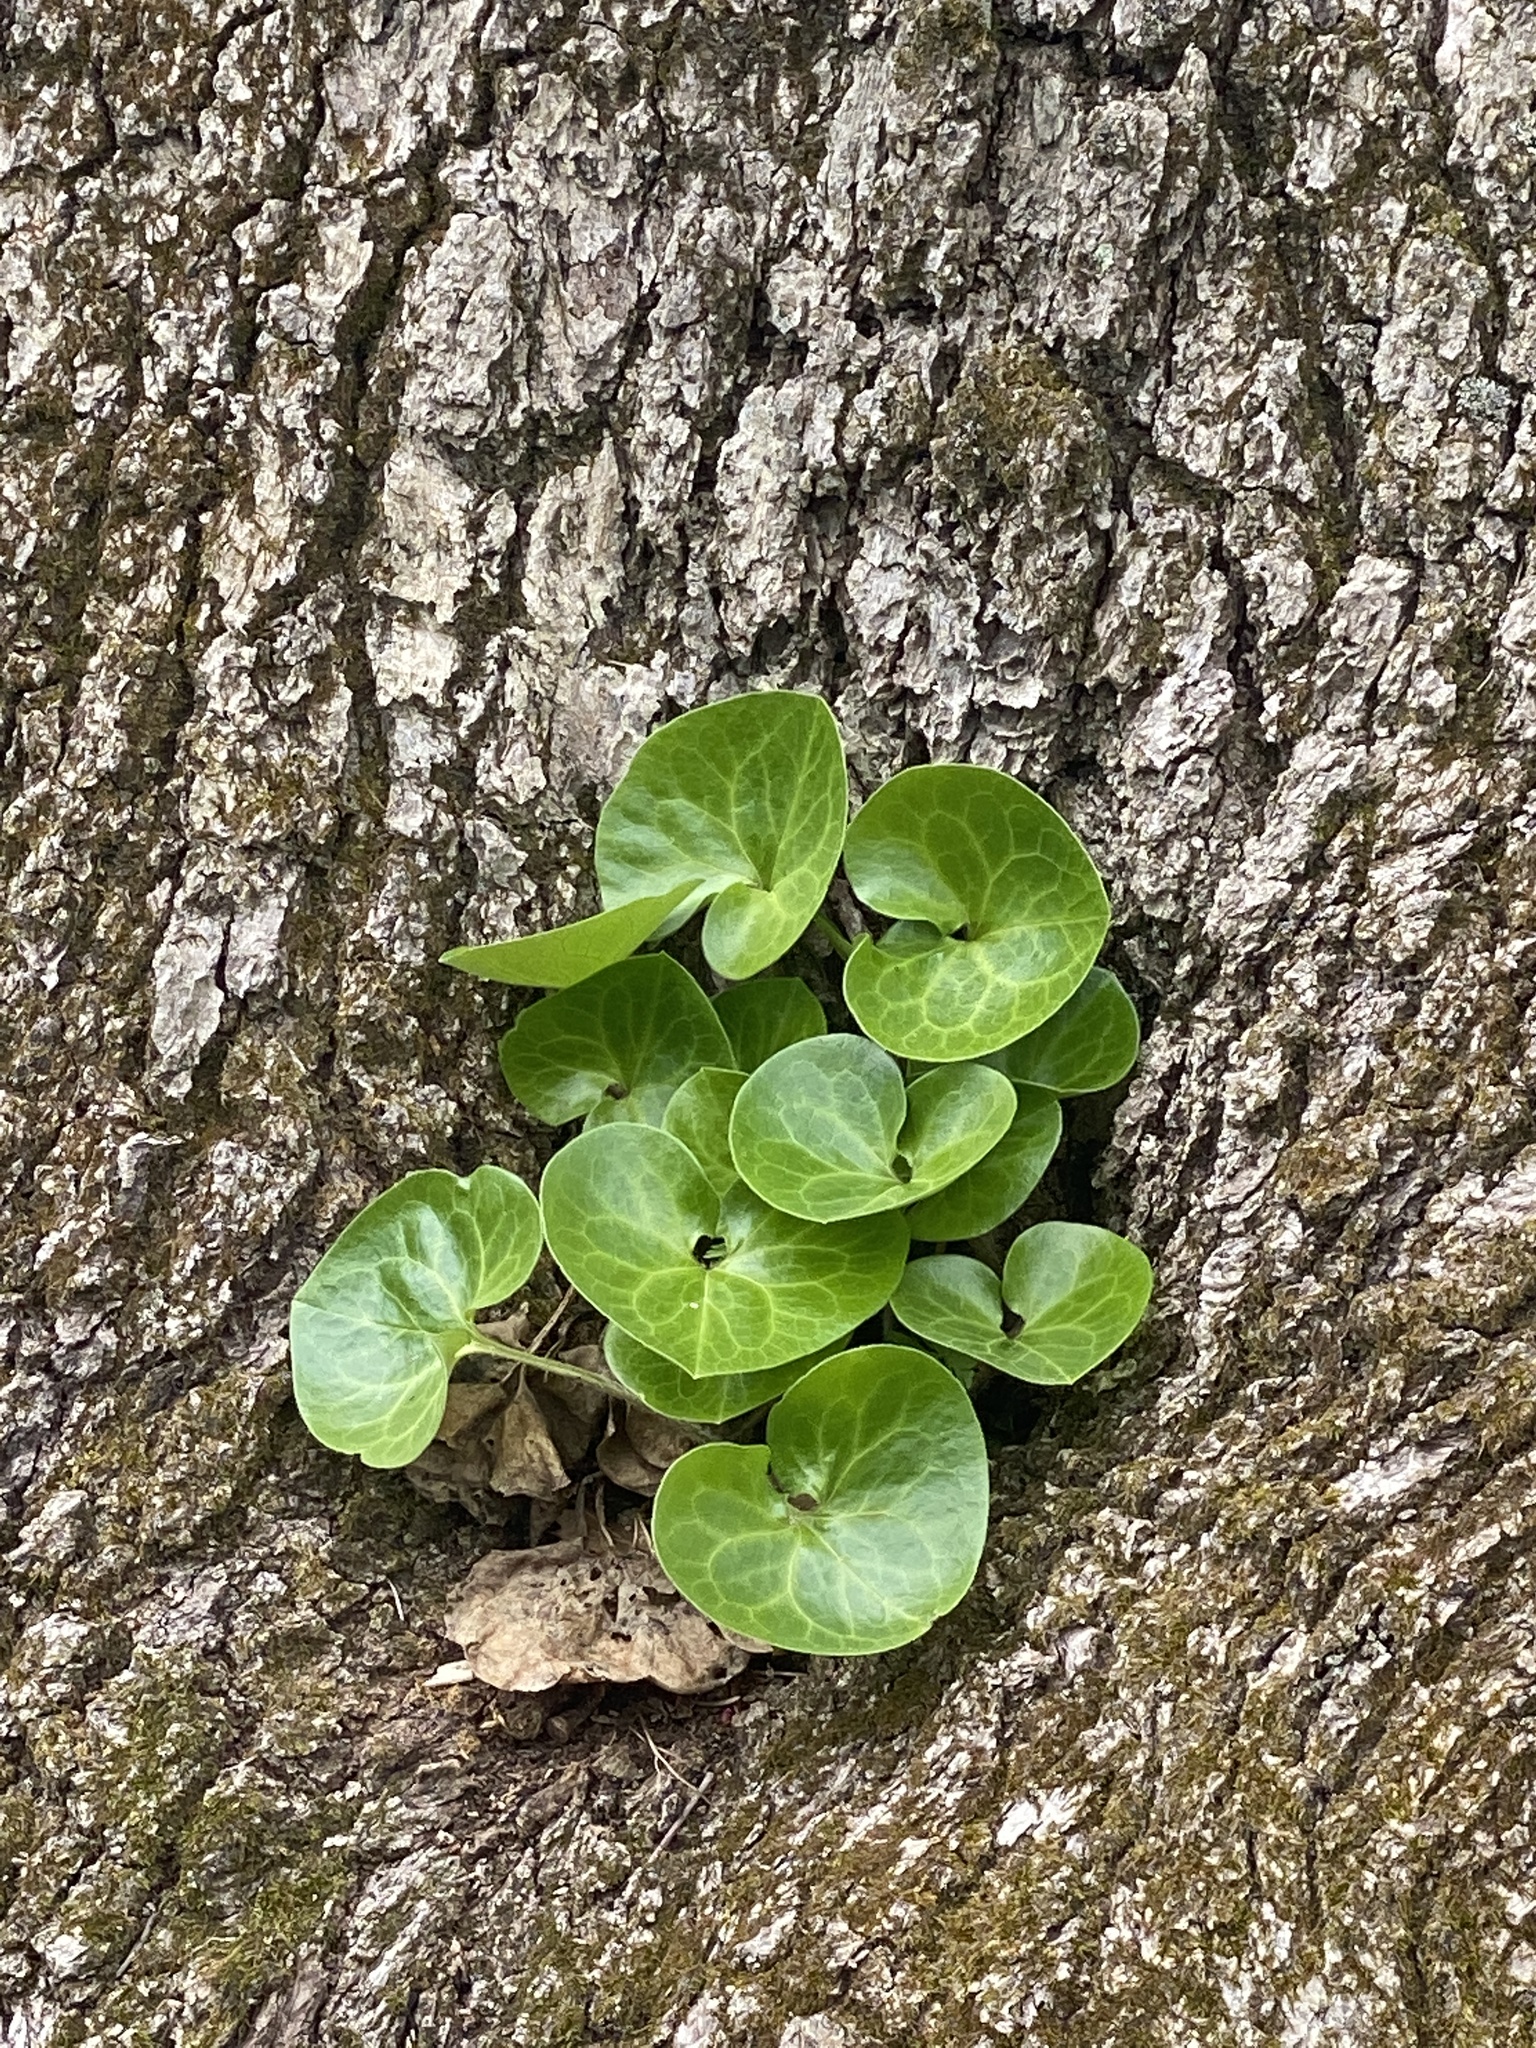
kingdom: Plantae
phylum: Tracheophyta
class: Magnoliopsida
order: Piperales
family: Aristolochiaceae
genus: Asarum
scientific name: Asarum europaeum
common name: Asarabacca
